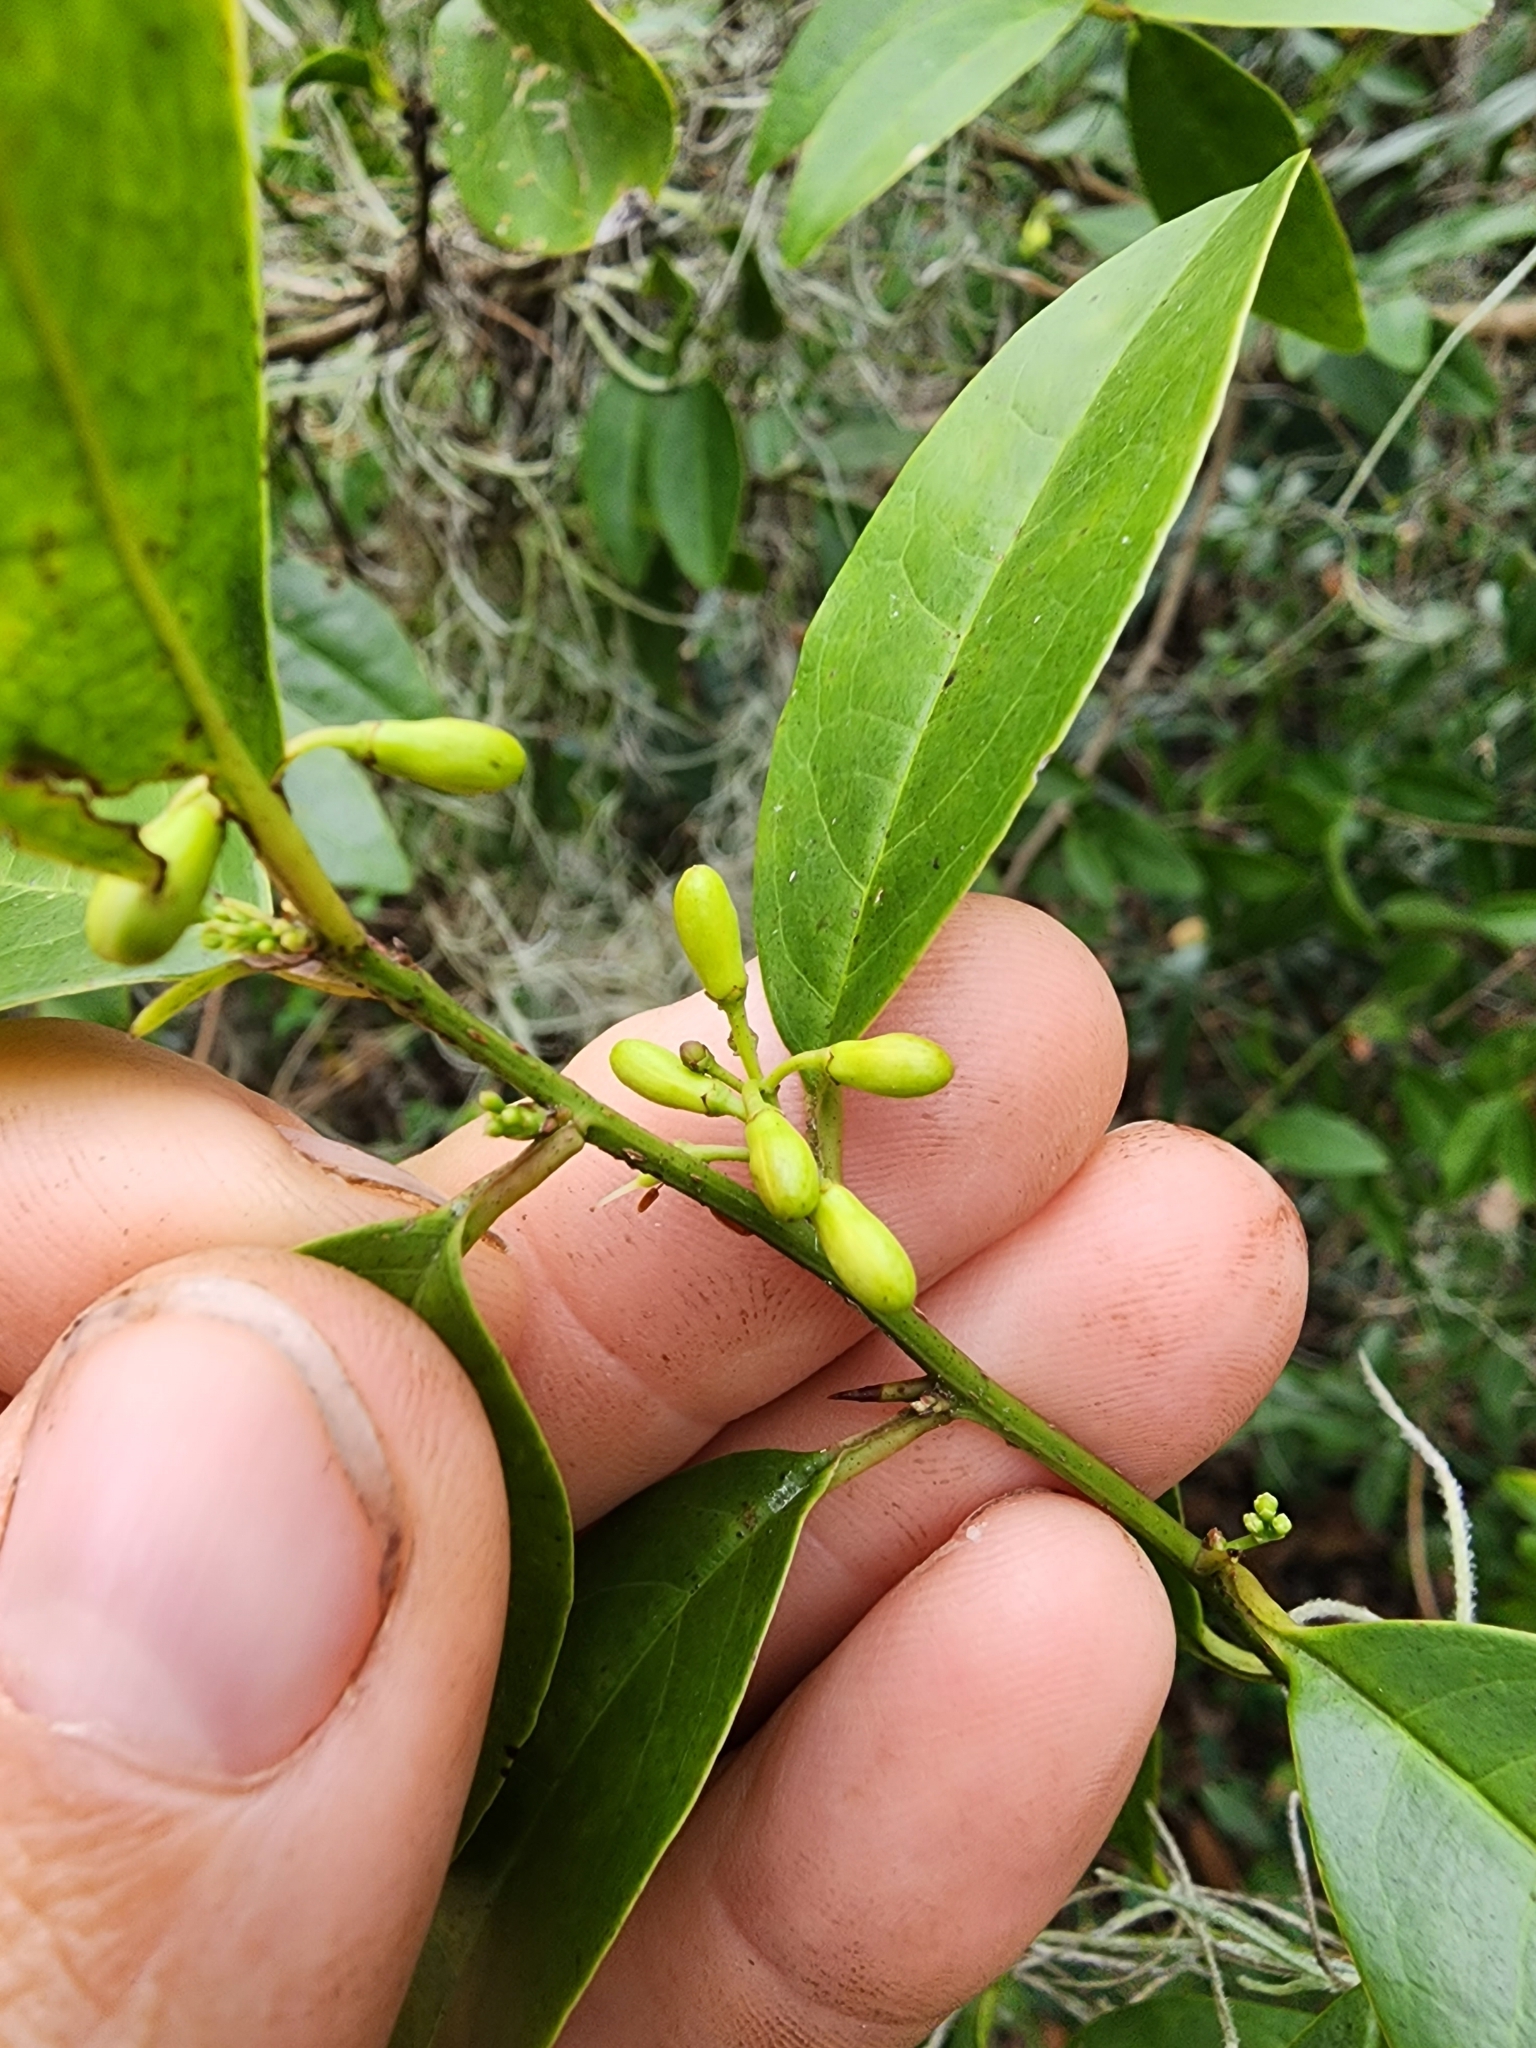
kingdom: Plantae
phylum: Tracheophyta
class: Magnoliopsida
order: Santalales
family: Ximeniaceae
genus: Ximenia
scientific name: Ximenia americana
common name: Tallowwood
